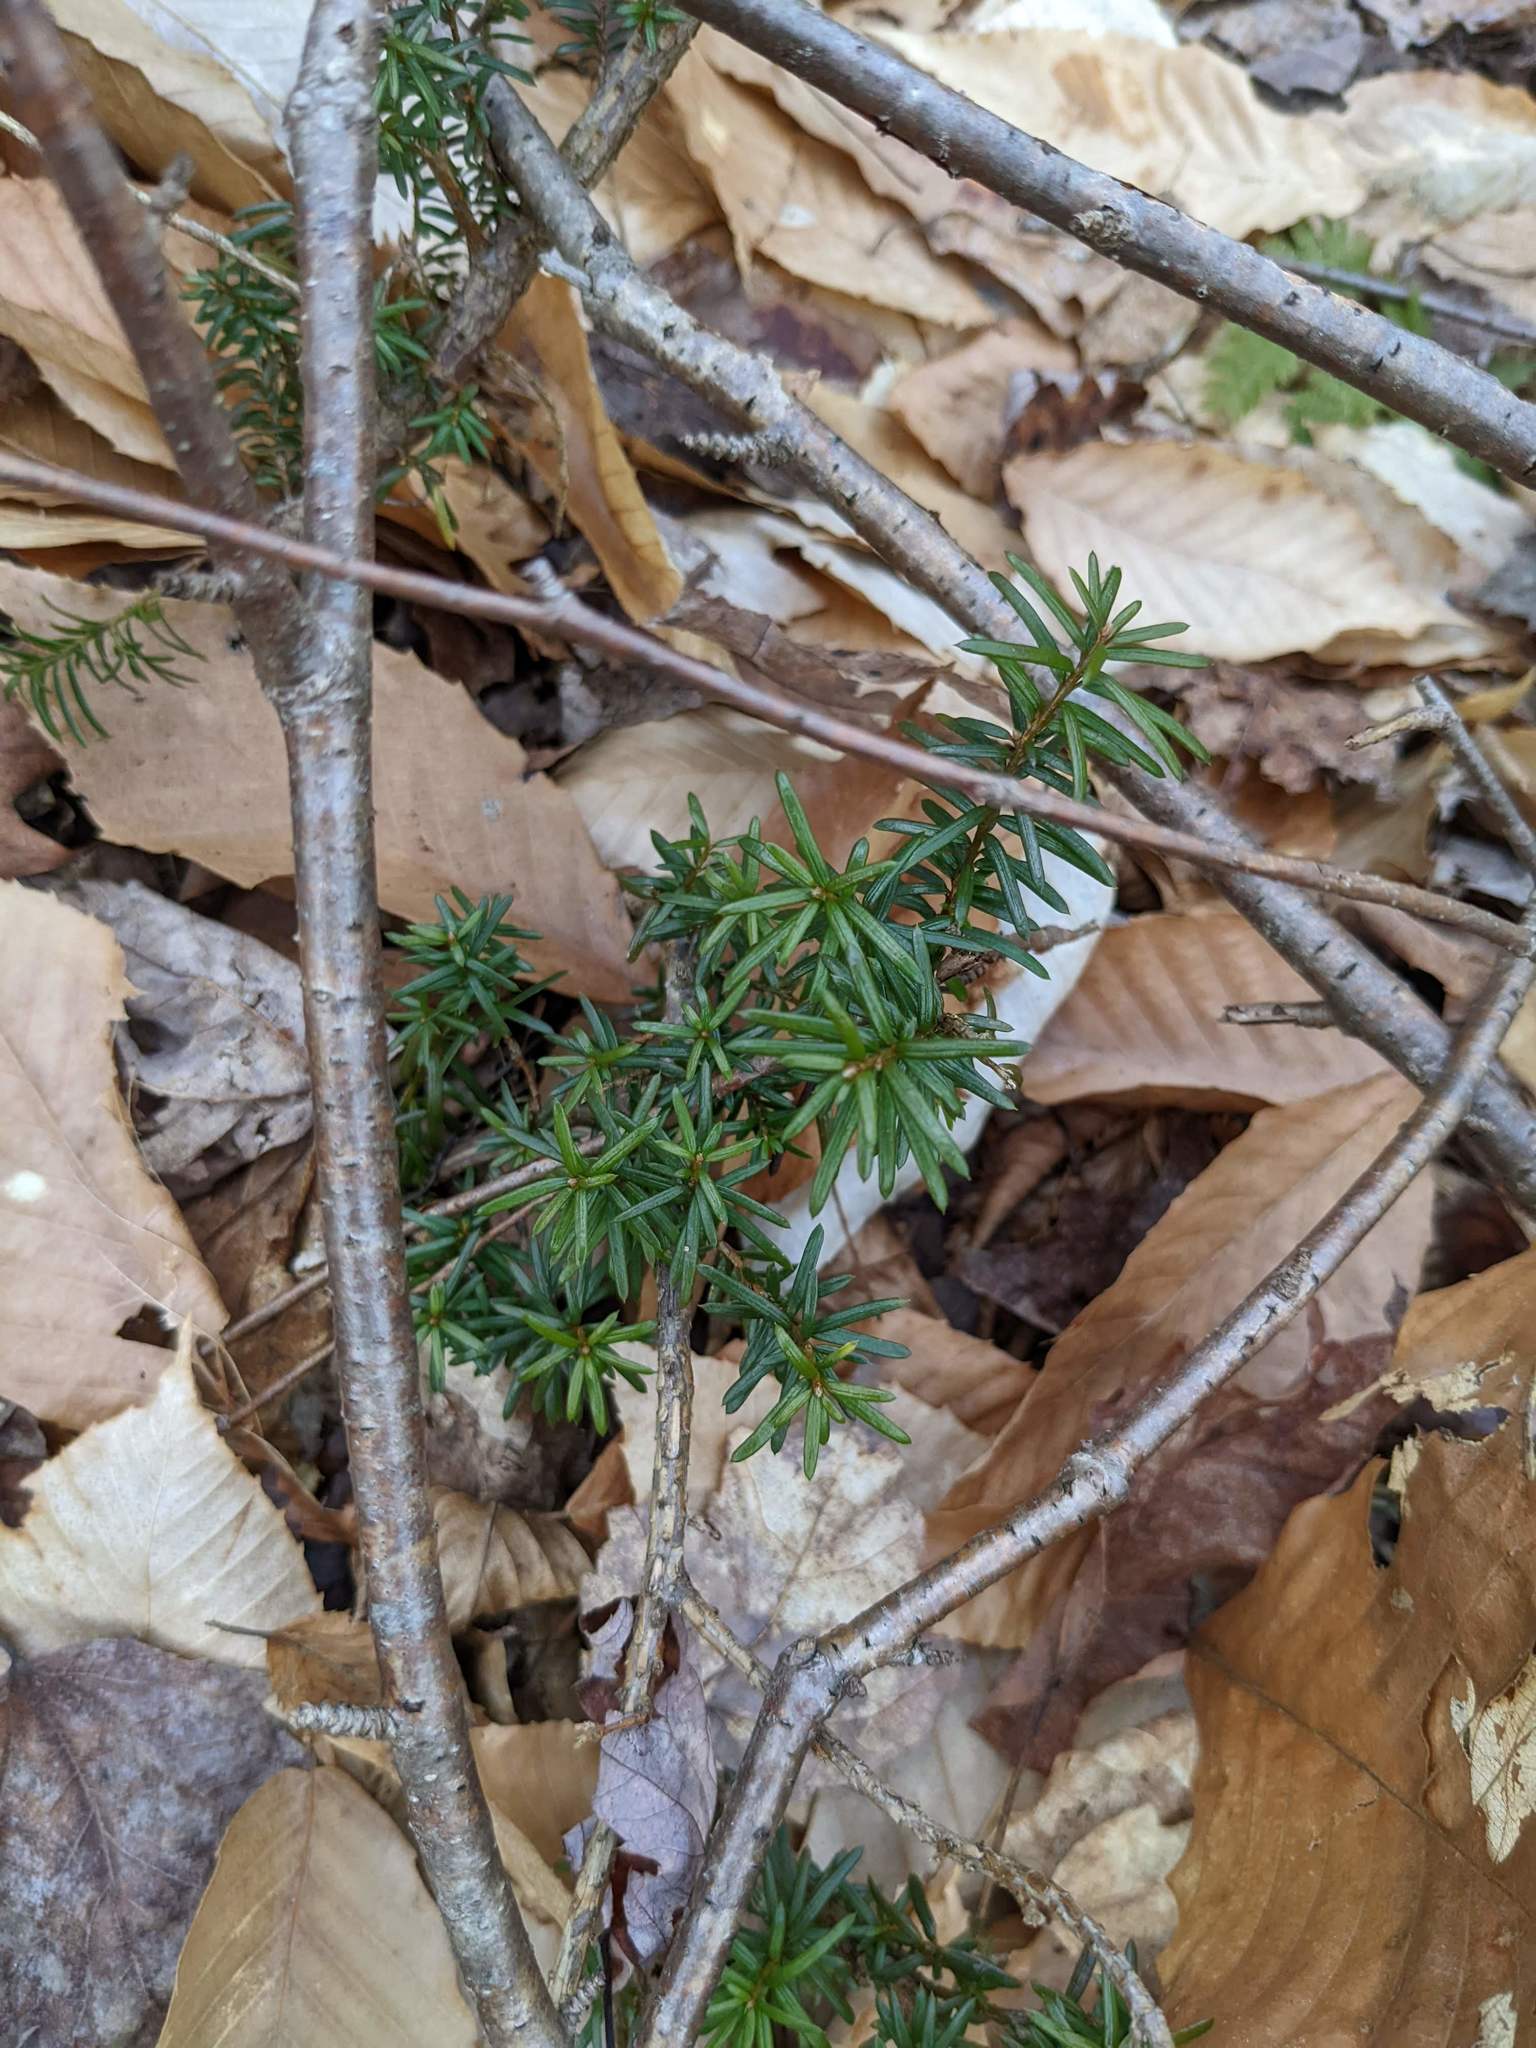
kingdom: Plantae
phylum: Tracheophyta
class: Pinopsida
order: Pinales
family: Taxaceae
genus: Taxus
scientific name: Taxus canadensis
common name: American yew
